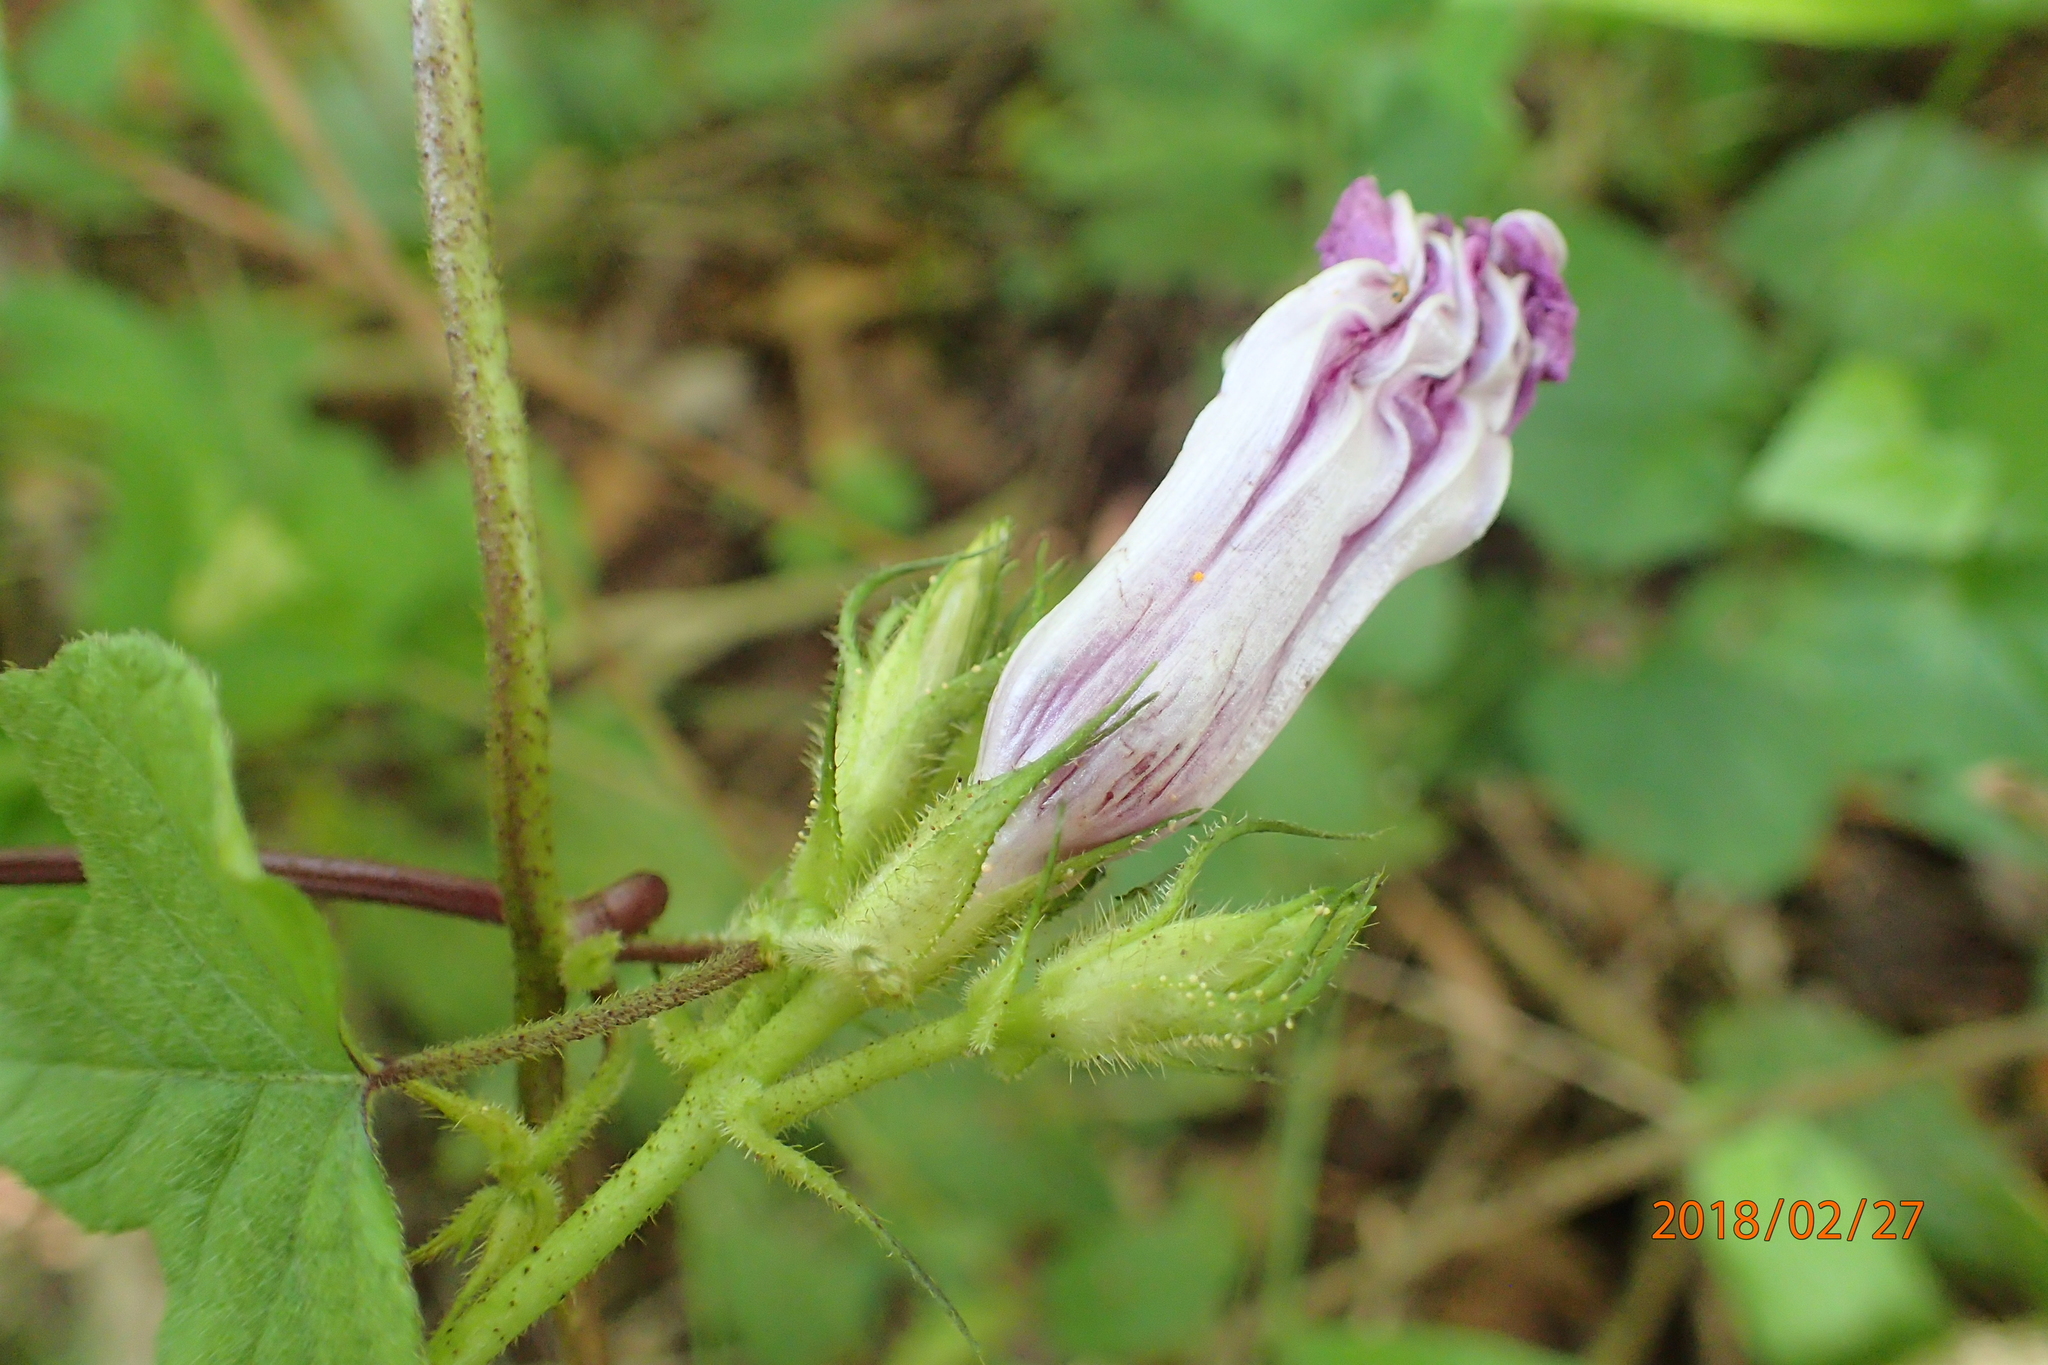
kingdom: Plantae
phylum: Tracheophyta
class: Magnoliopsida
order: Solanales
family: Convolvulaceae
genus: Ipomoea
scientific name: Ipomoea ficifolia
